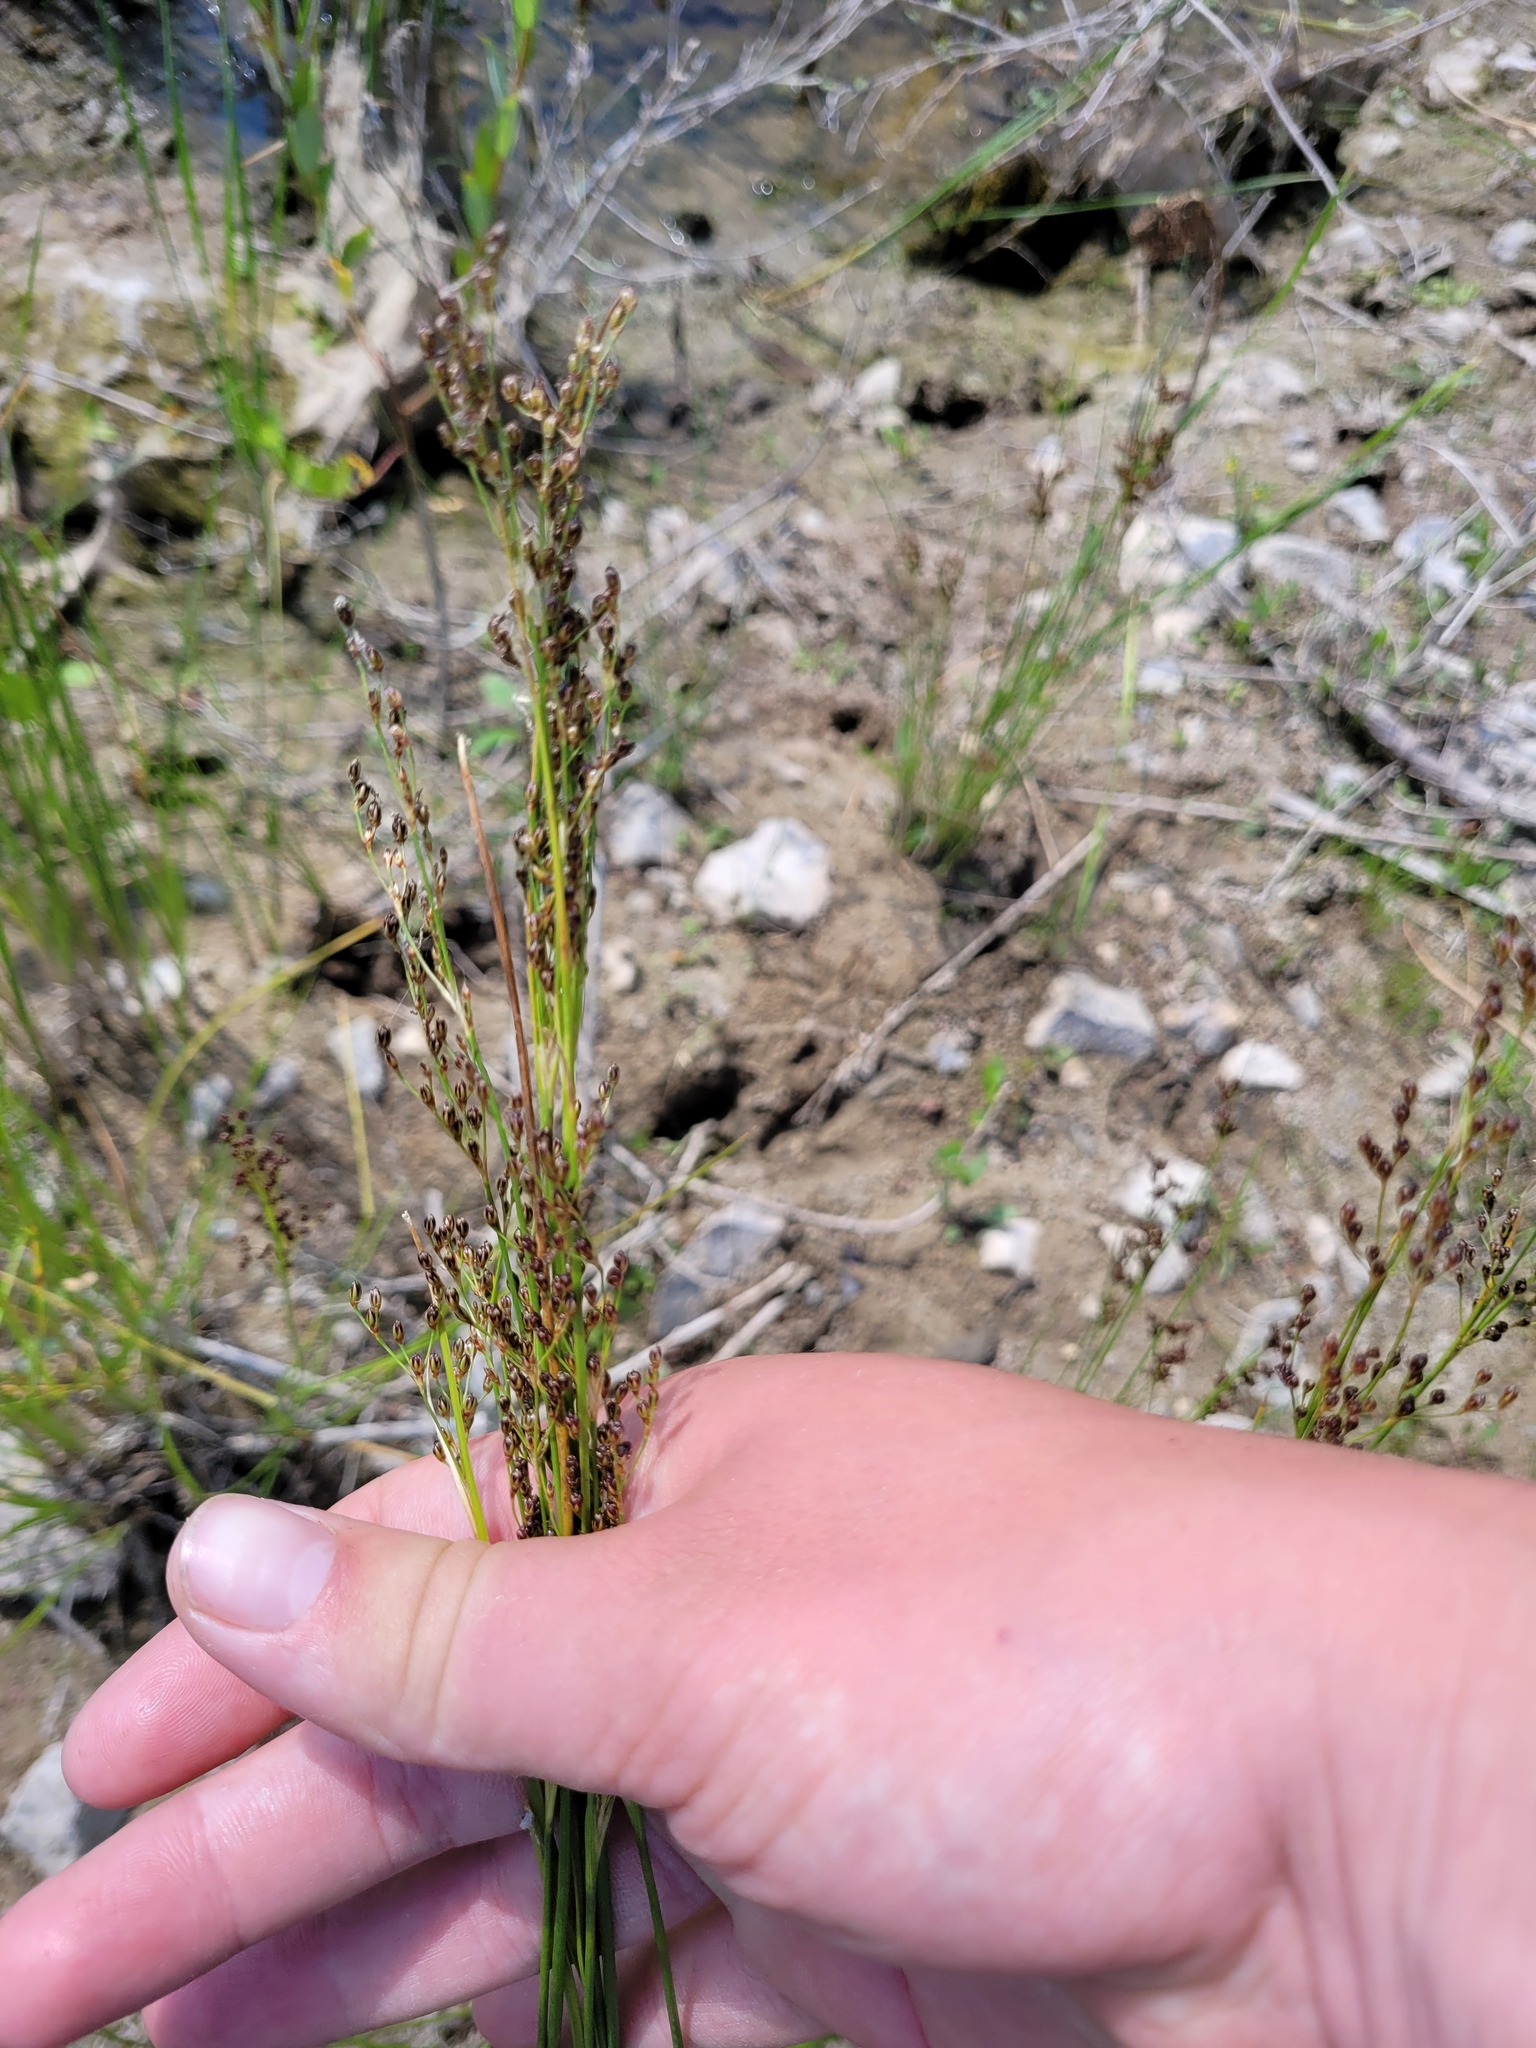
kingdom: Plantae
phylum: Tracheophyta
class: Liliopsida
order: Poales
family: Juncaceae
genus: Juncus
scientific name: Juncus gerardi
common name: Saltmarsh rush
